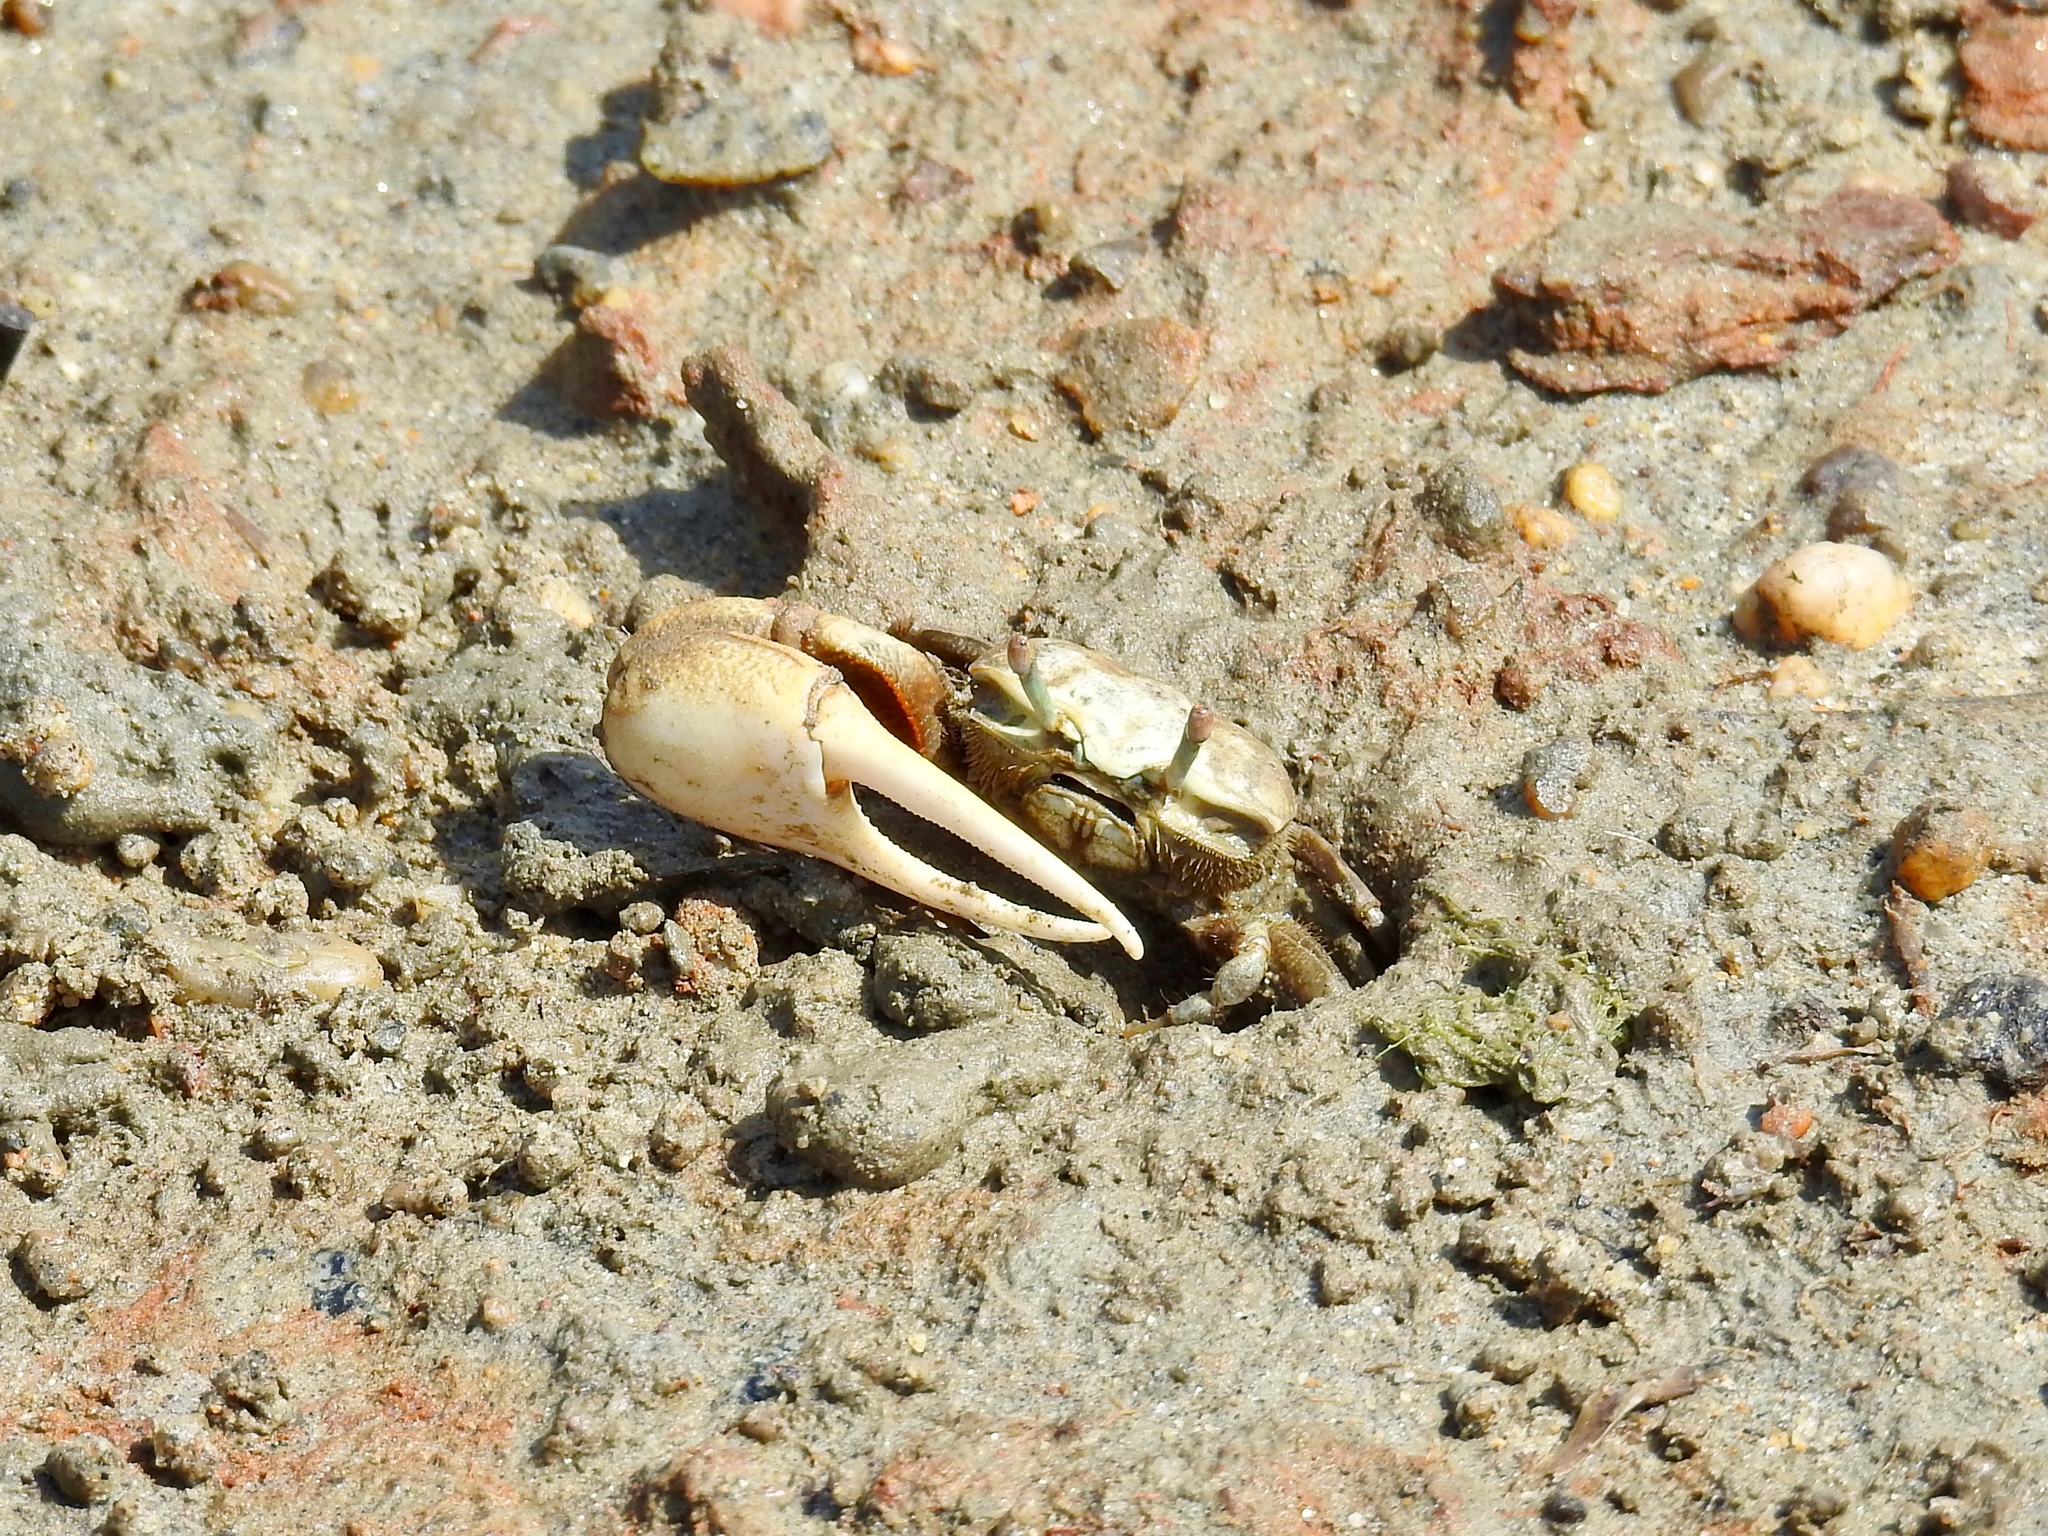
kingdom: Animalia
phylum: Arthropoda
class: Malacostraca
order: Decapoda
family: Ocypodidae
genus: Leptuca
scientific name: Leptuca crenulata
